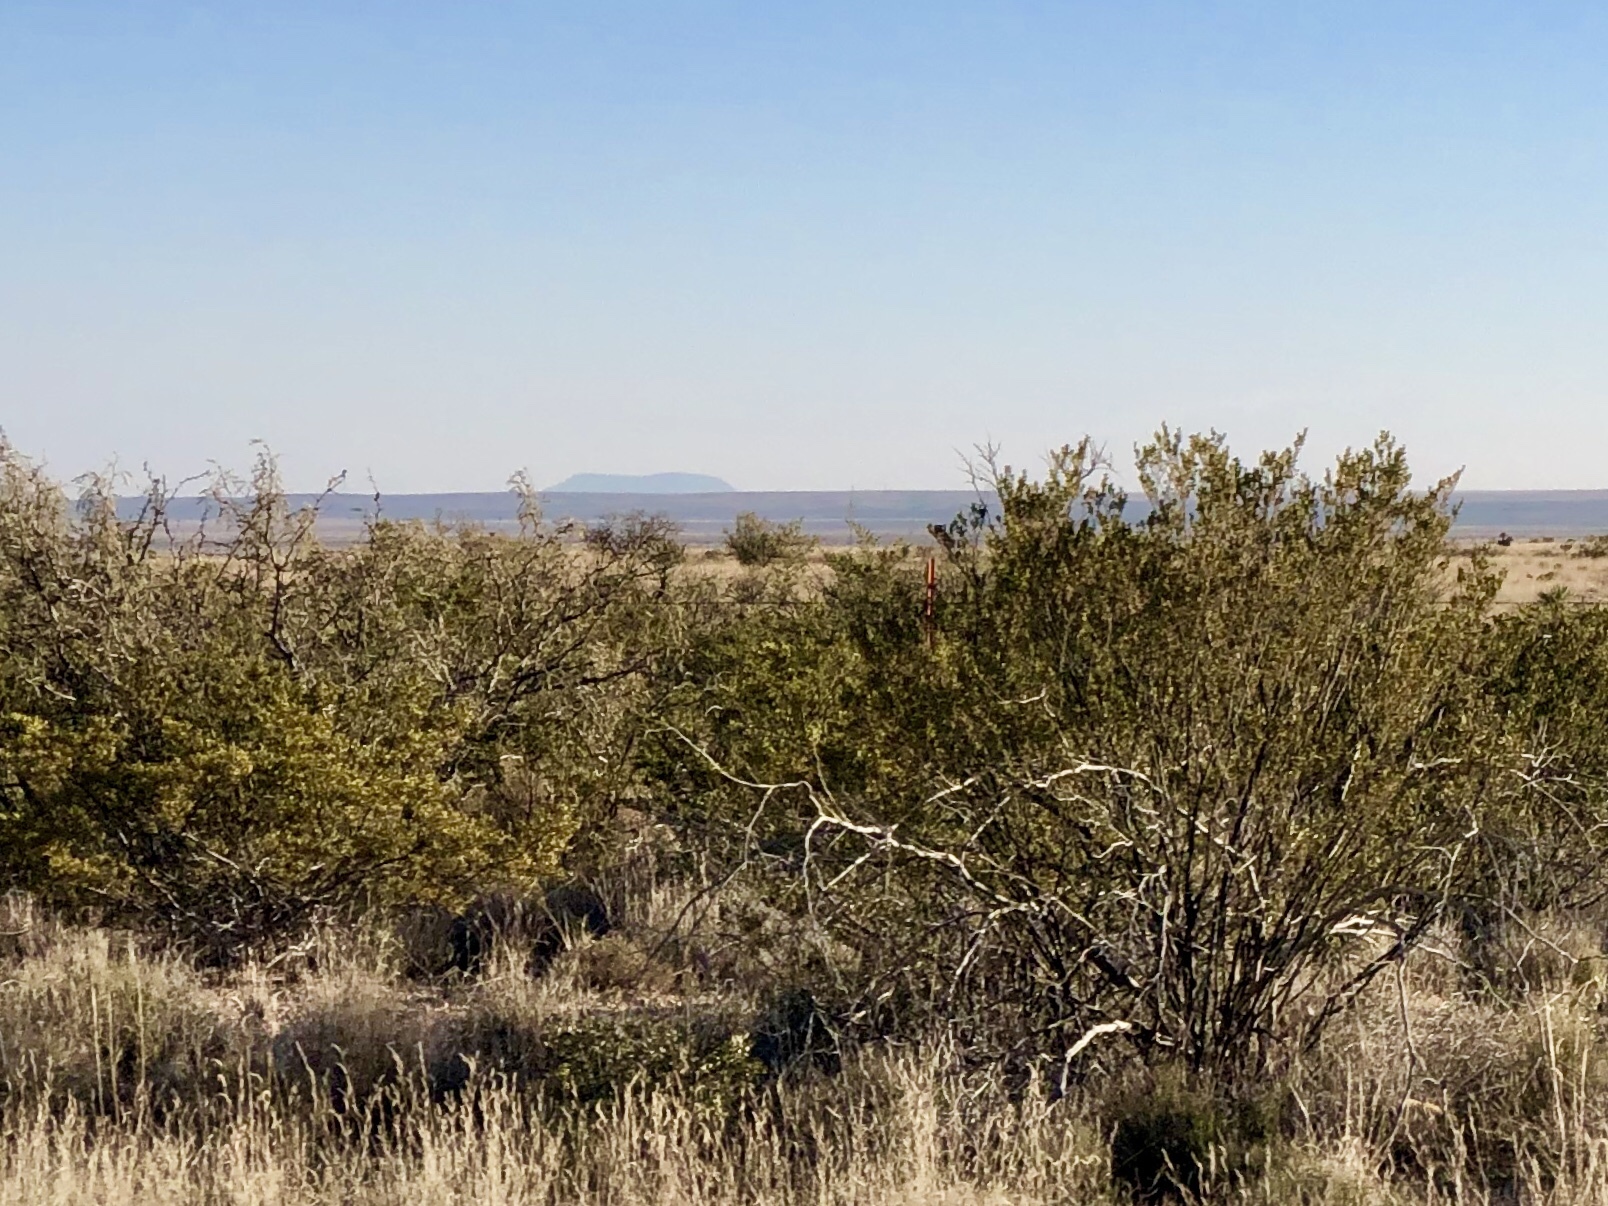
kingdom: Plantae
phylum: Tracheophyta
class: Magnoliopsida
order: Zygophyllales
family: Zygophyllaceae
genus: Larrea
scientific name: Larrea tridentata
